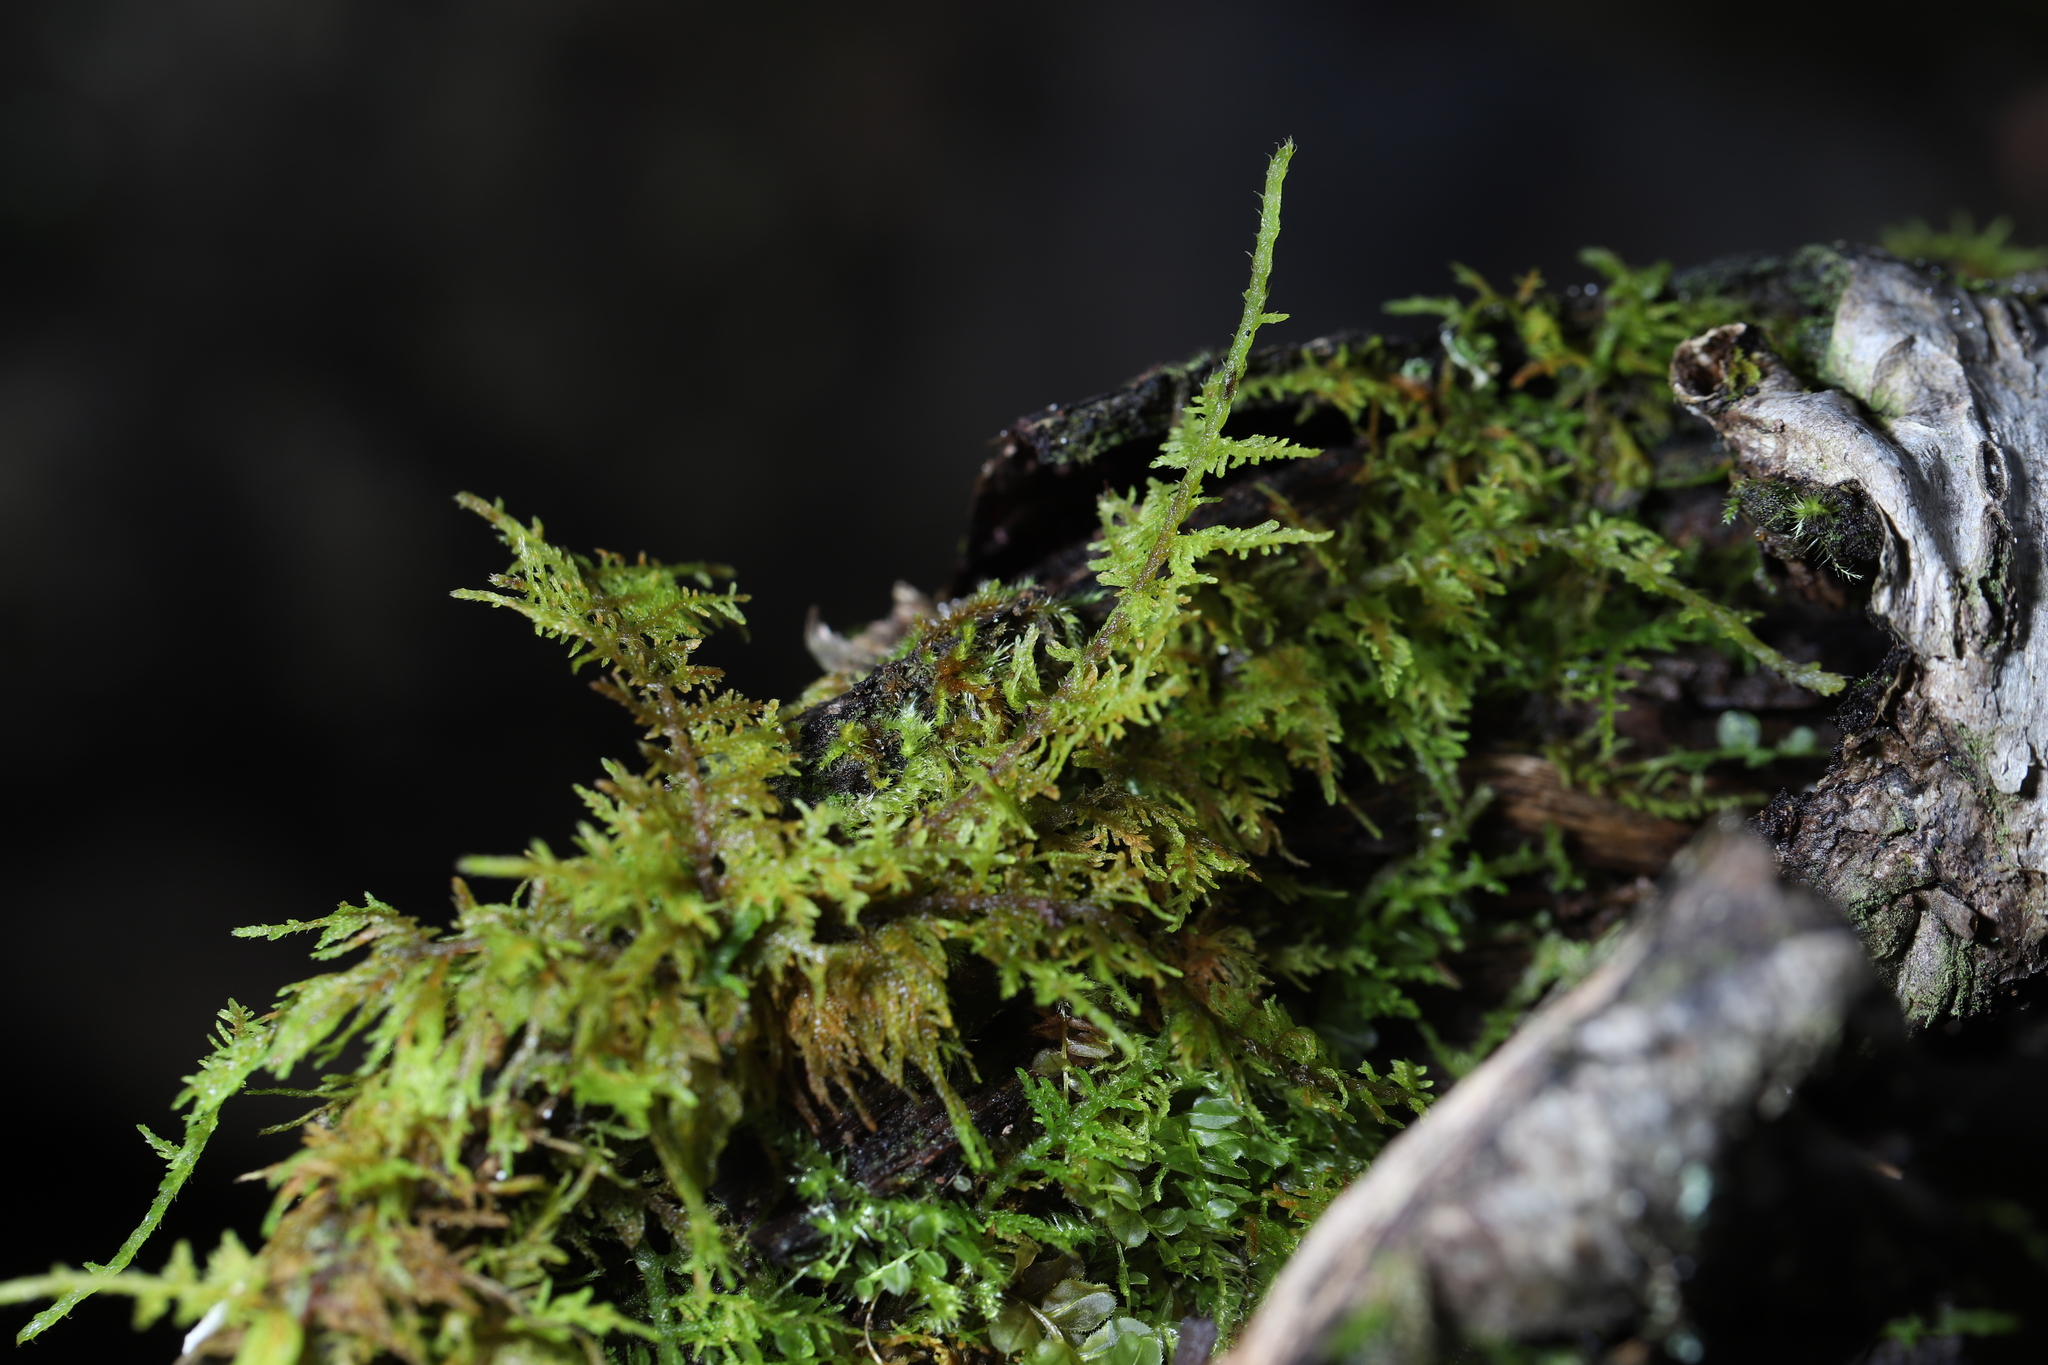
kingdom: Plantae
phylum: Bryophyta
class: Bryopsida
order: Hypnales
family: Thuidiaceae
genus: Thuidium
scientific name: Thuidium delicatulum
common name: Delicate fern moss
